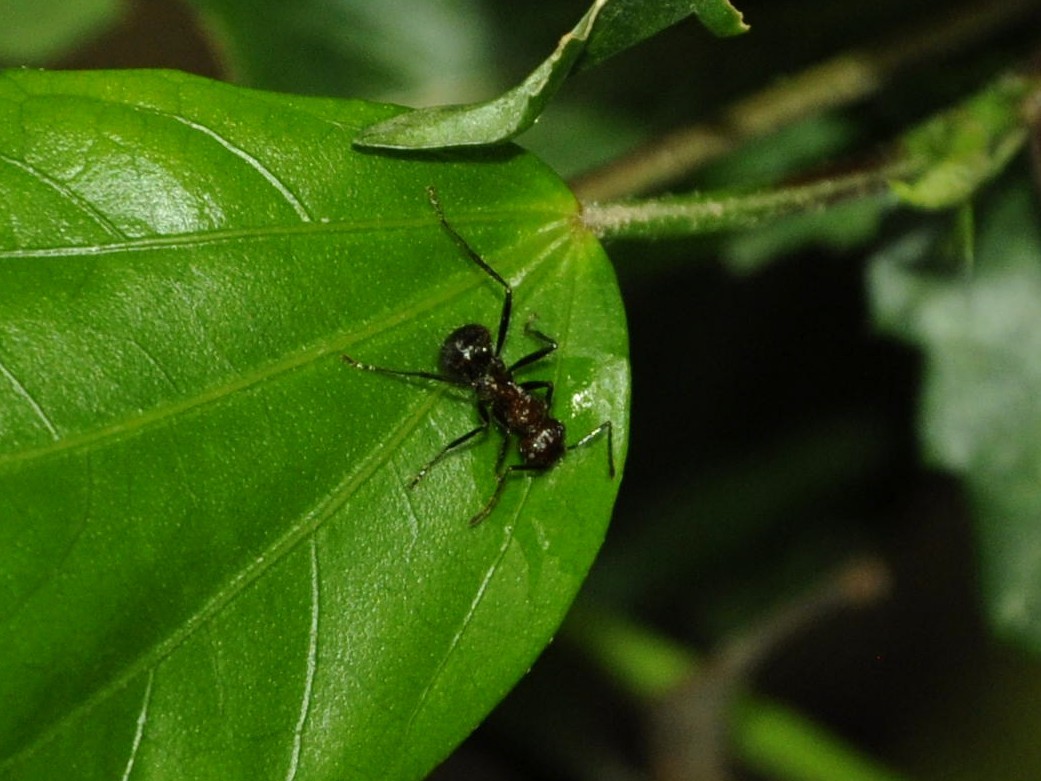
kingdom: Animalia
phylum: Arthropoda
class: Insecta
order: Hymenoptera
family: Formicidae
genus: Myrmicaria
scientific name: Myrmicaria brunnea
